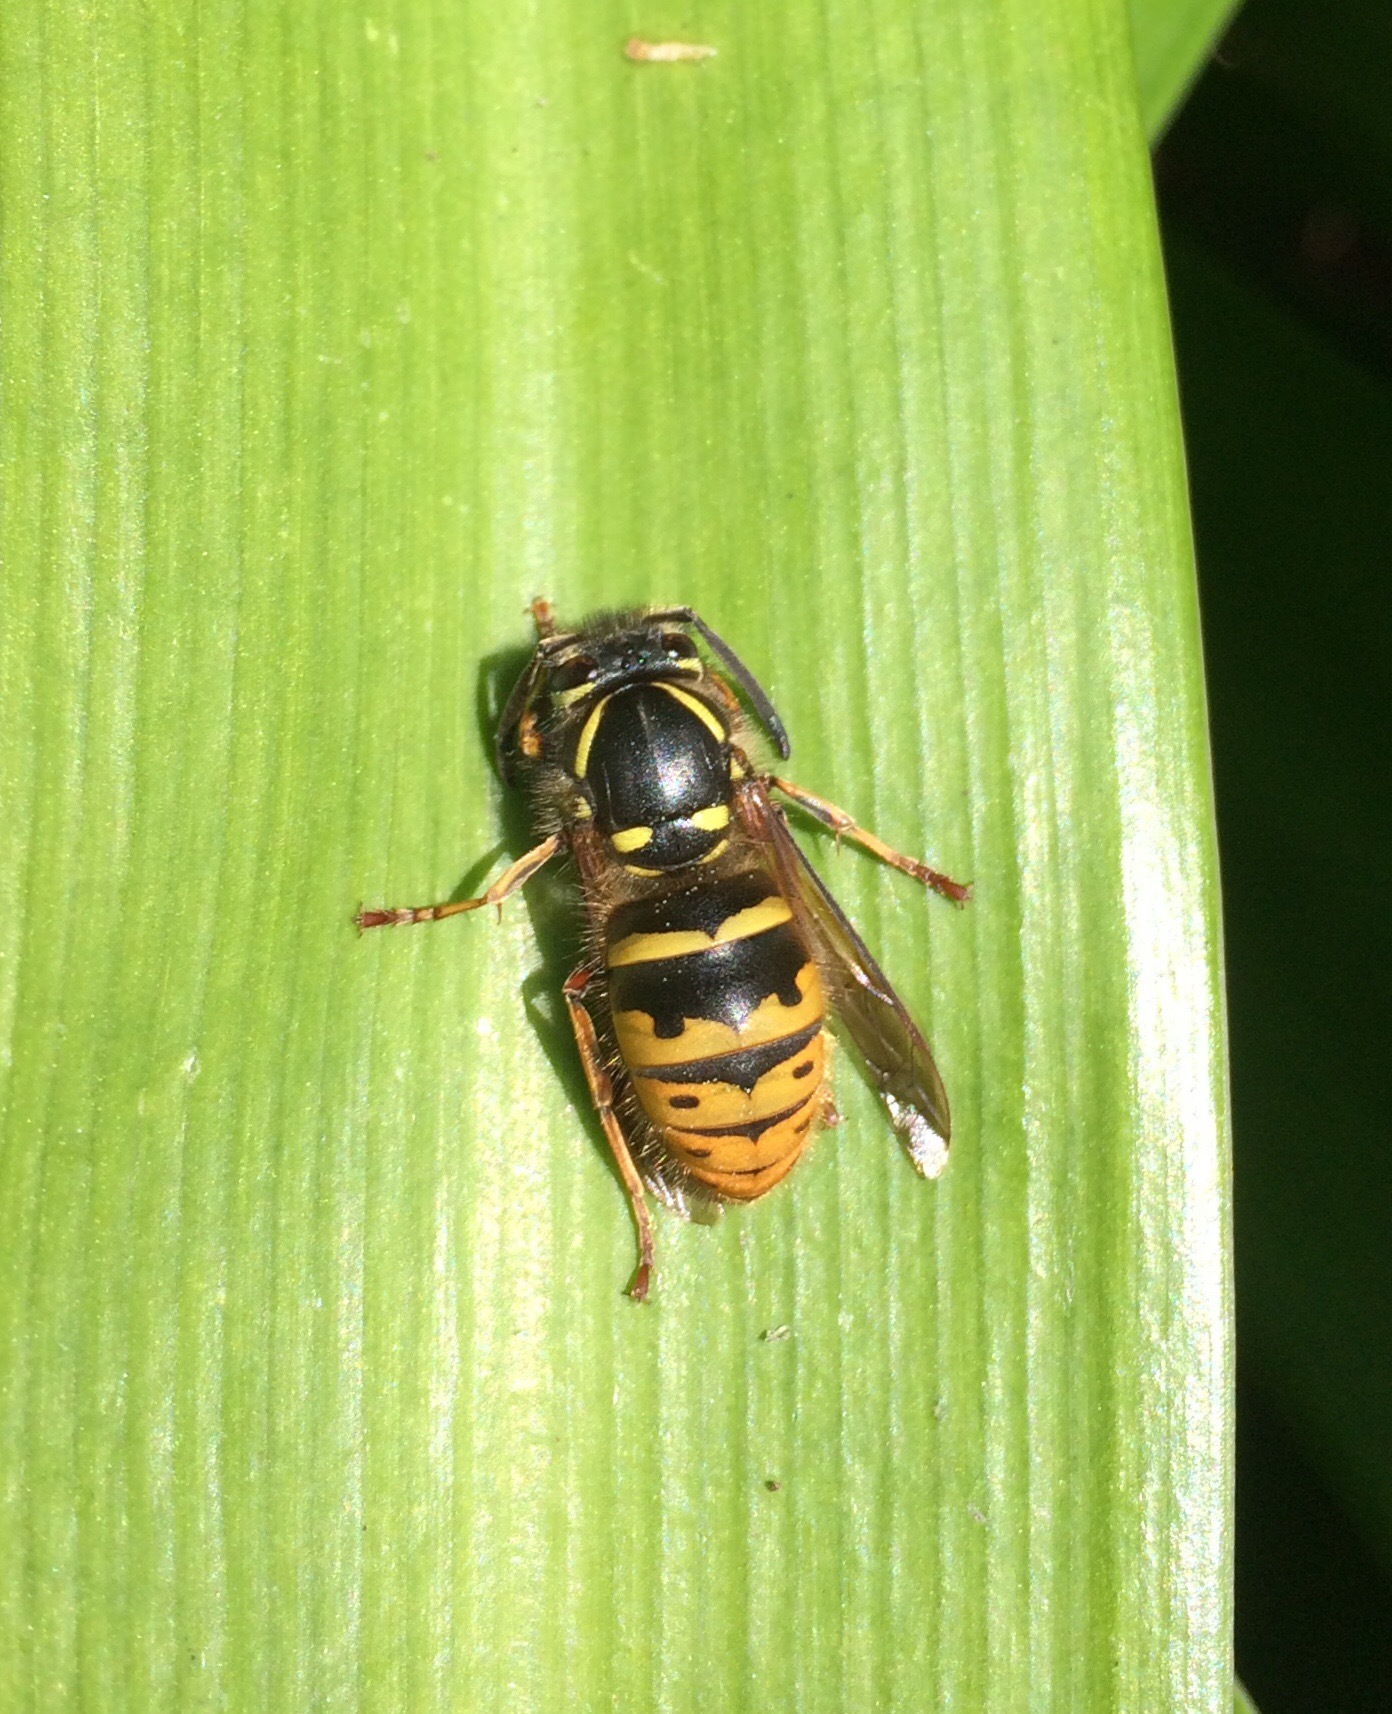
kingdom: Animalia
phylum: Arthropoda
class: Insecta
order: Hymenoptera
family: Vespidae
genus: Vespula
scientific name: Vespula vulgaris
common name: Common wasp
